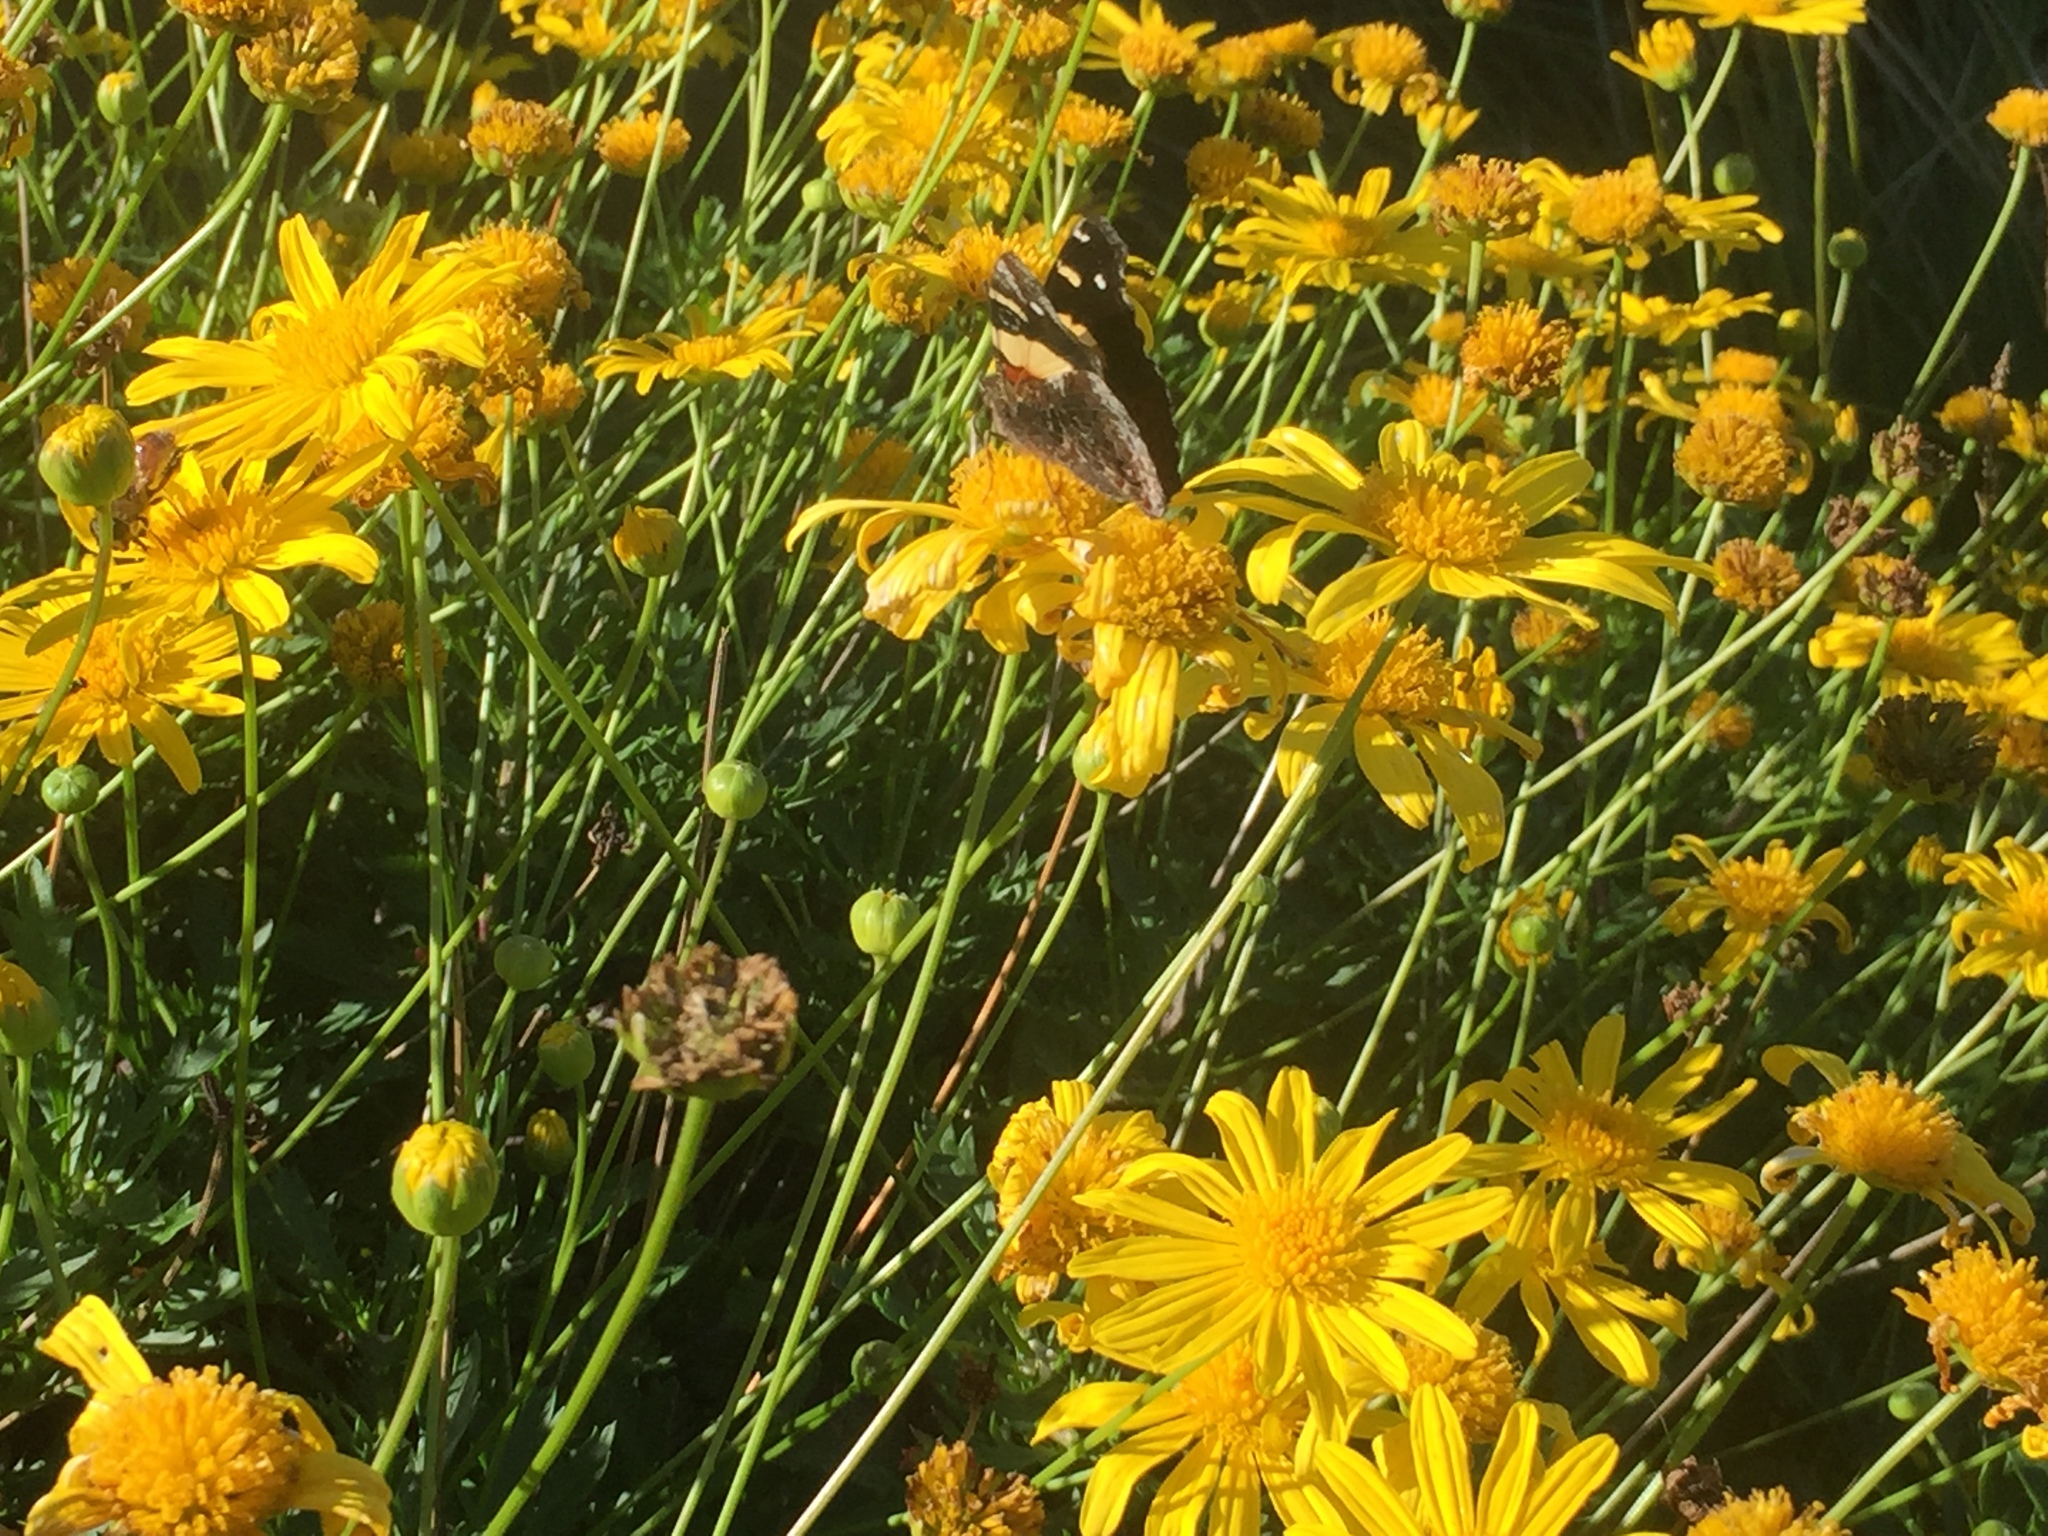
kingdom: Animalia
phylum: Arthropoda
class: Insecta
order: Lepidoptera
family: Nymphalidae
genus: Vanessa
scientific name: Vanessa itea
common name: Yellow admiral
